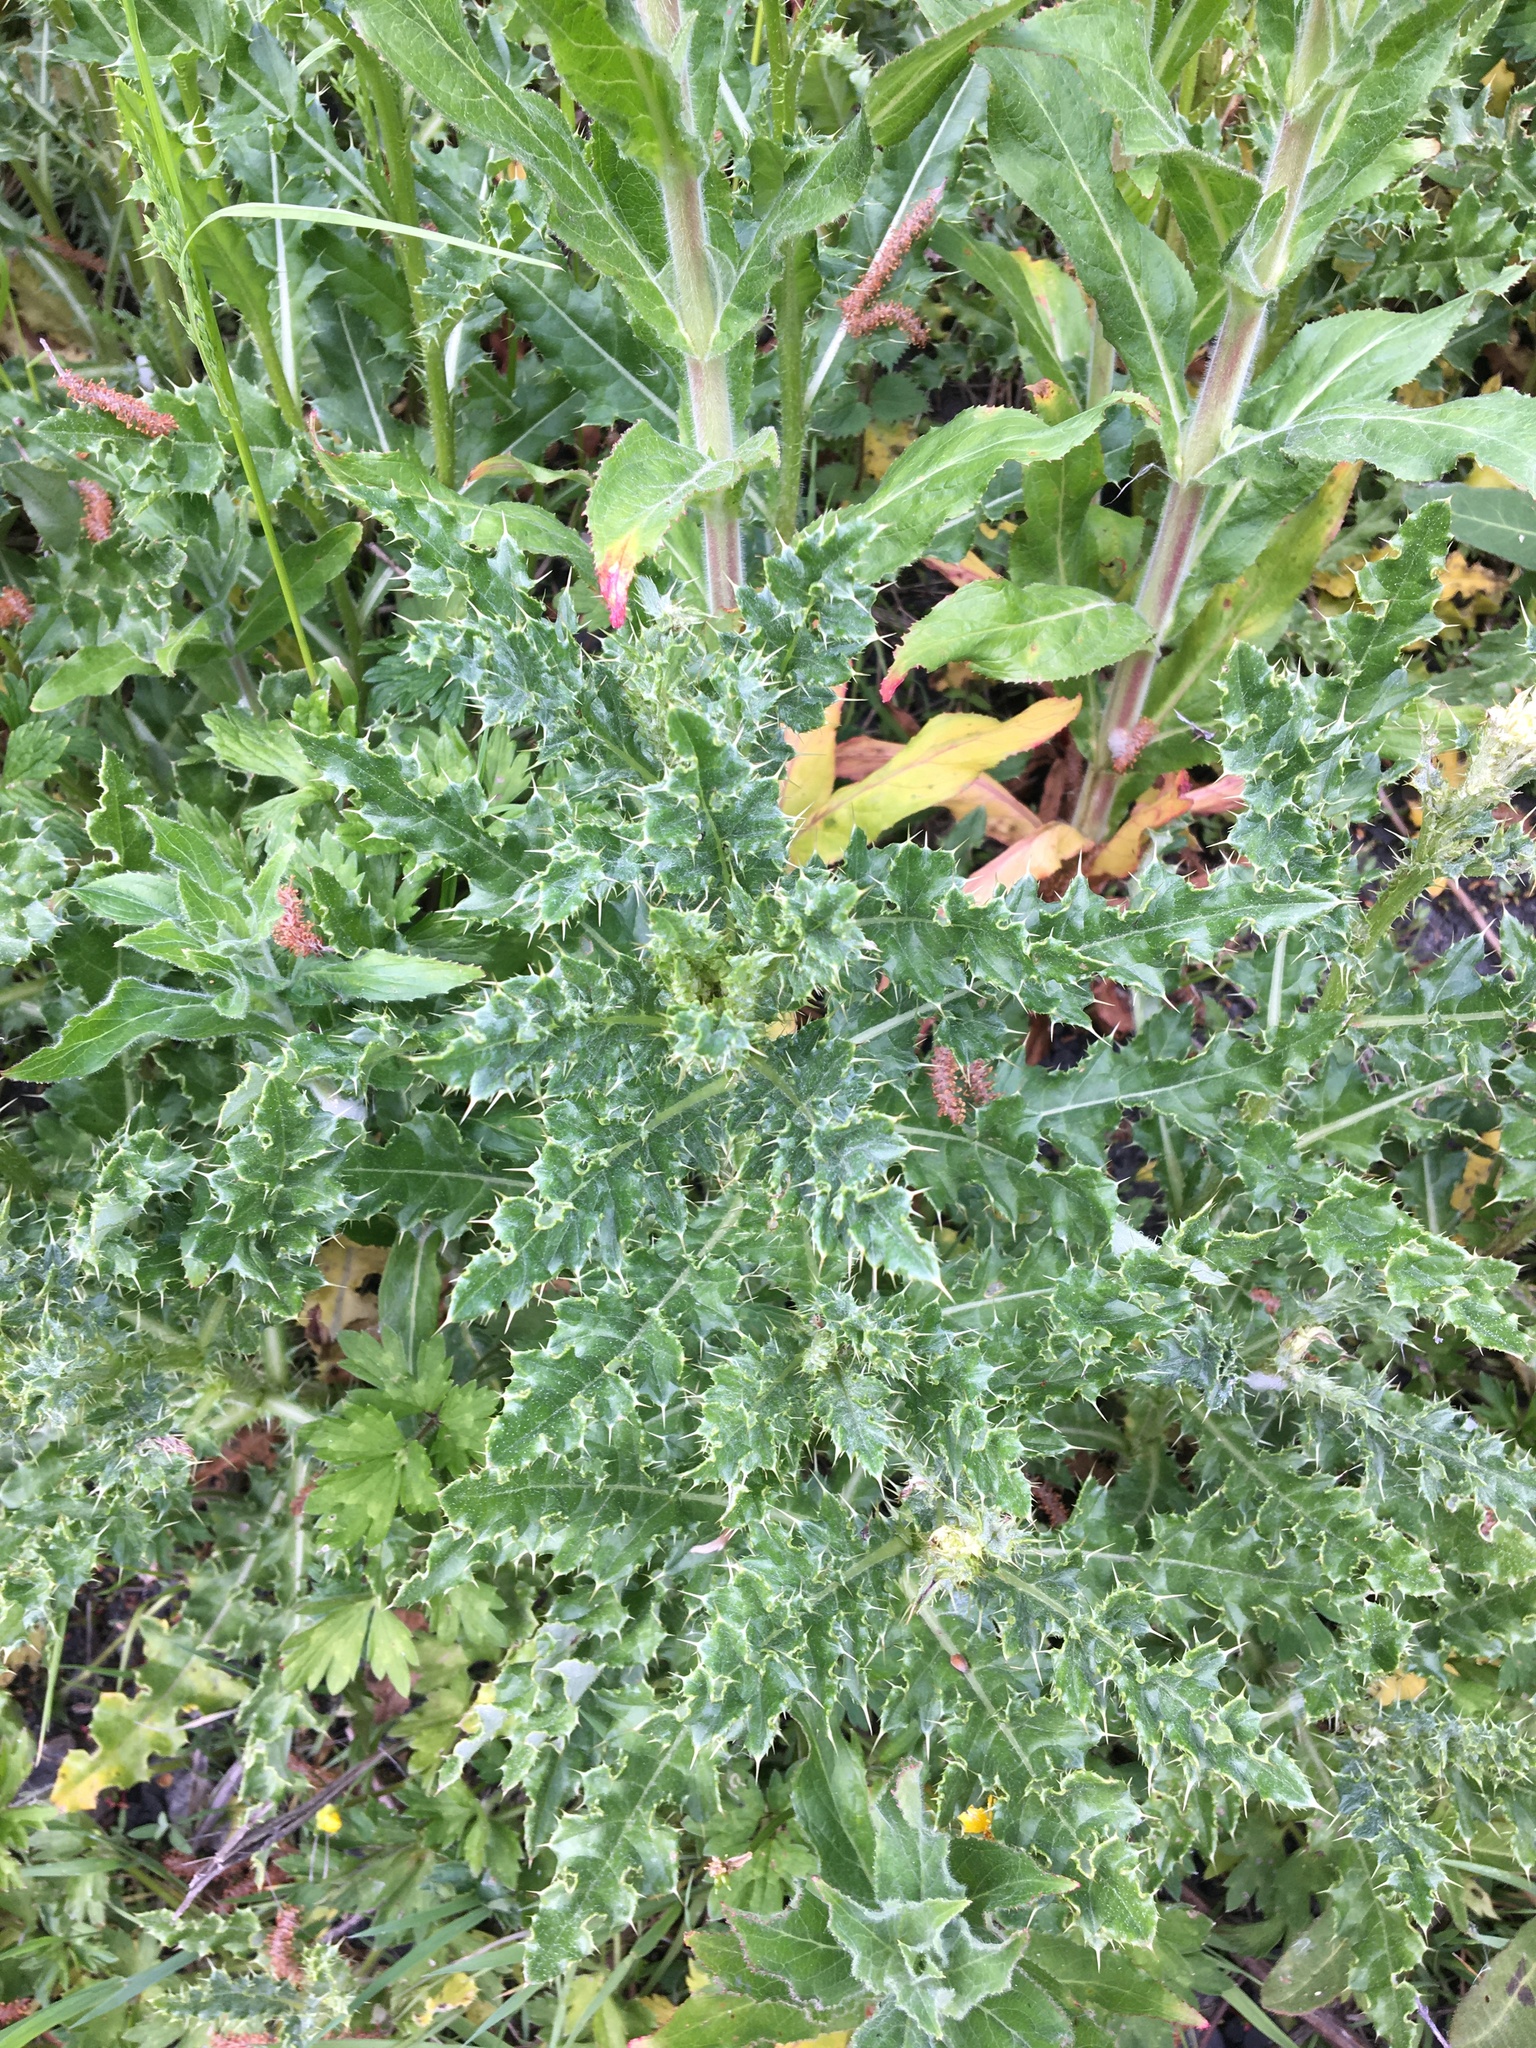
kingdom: Plantae
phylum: Tracheophyta
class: Magnoliopsida
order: Asterales
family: Asteraceae
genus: Cirsium
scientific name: Cirsium arvense
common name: Creeping thistle
